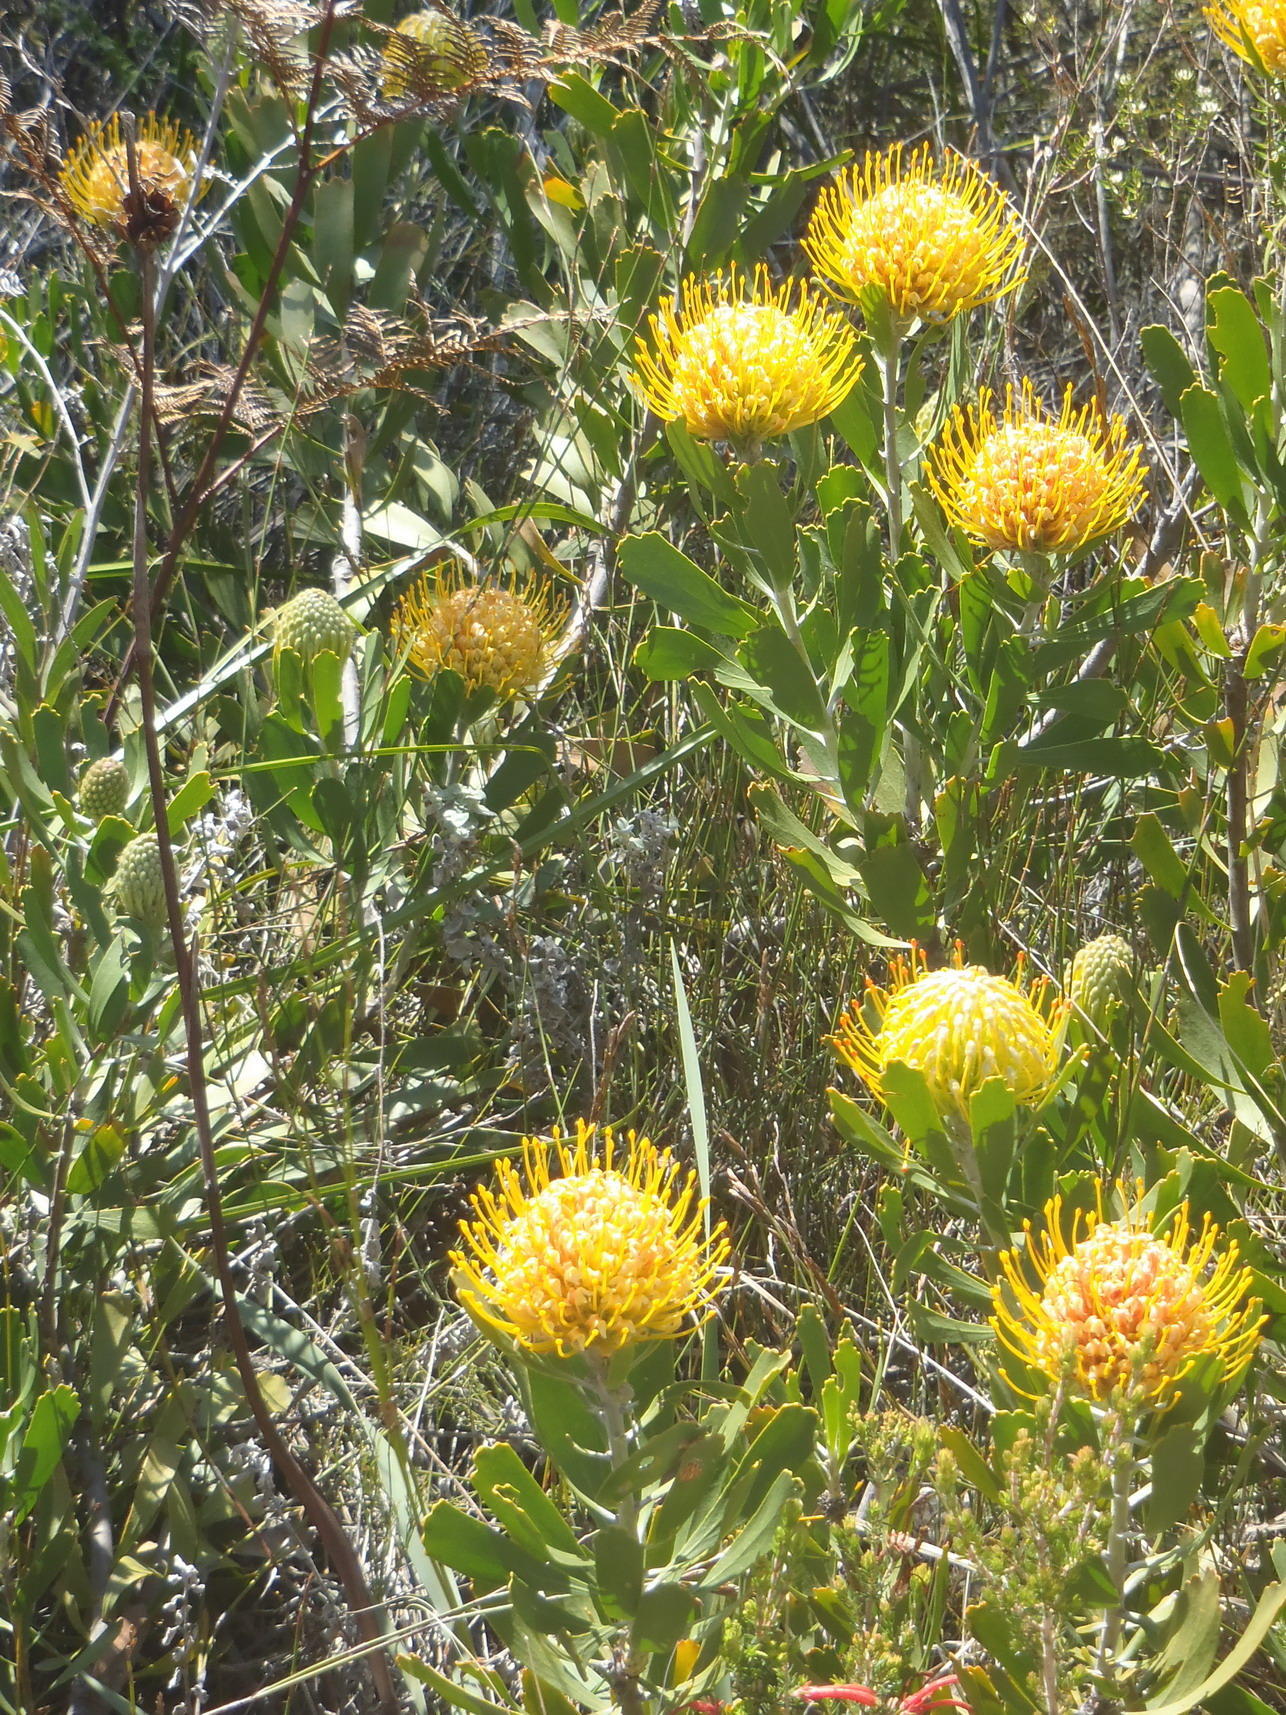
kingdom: Plantae
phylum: Tracheophyta
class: Magnoliopsida
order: Proteales
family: Proteaceae
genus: Leucospermum
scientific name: Leucospermum cuneiforme
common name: Common pincushion
